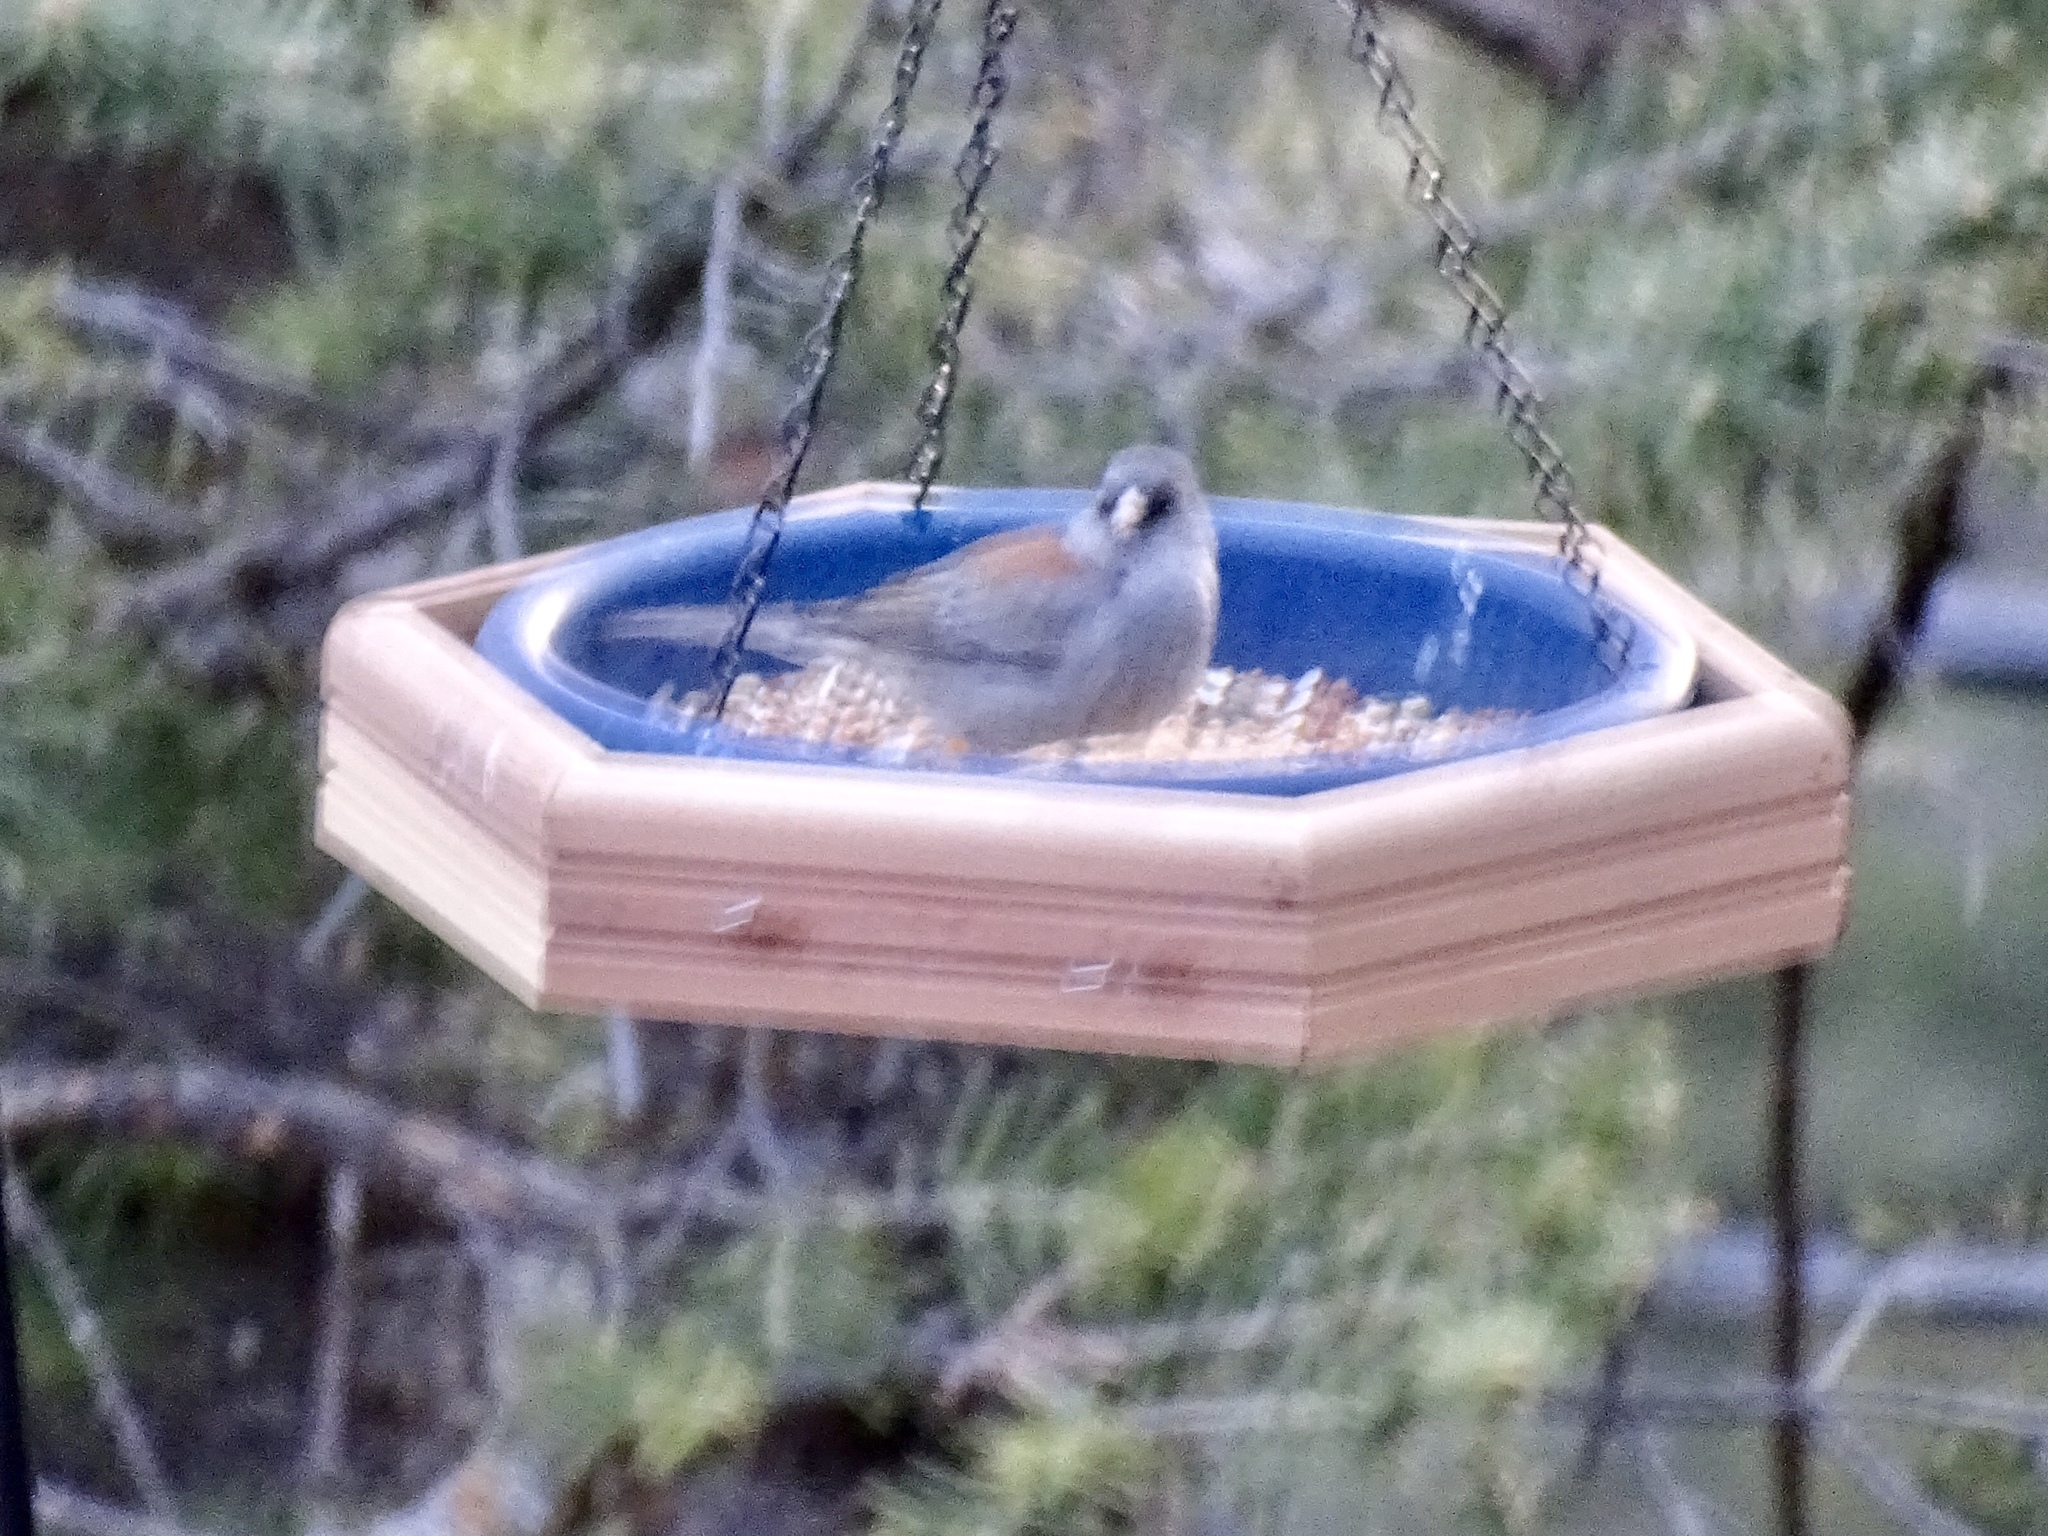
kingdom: Animalia
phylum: Chordata
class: Aves
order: Passeriformes
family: Passerellidae
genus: Junco
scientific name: Junco hyemalis
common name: Dark-eyed junco
